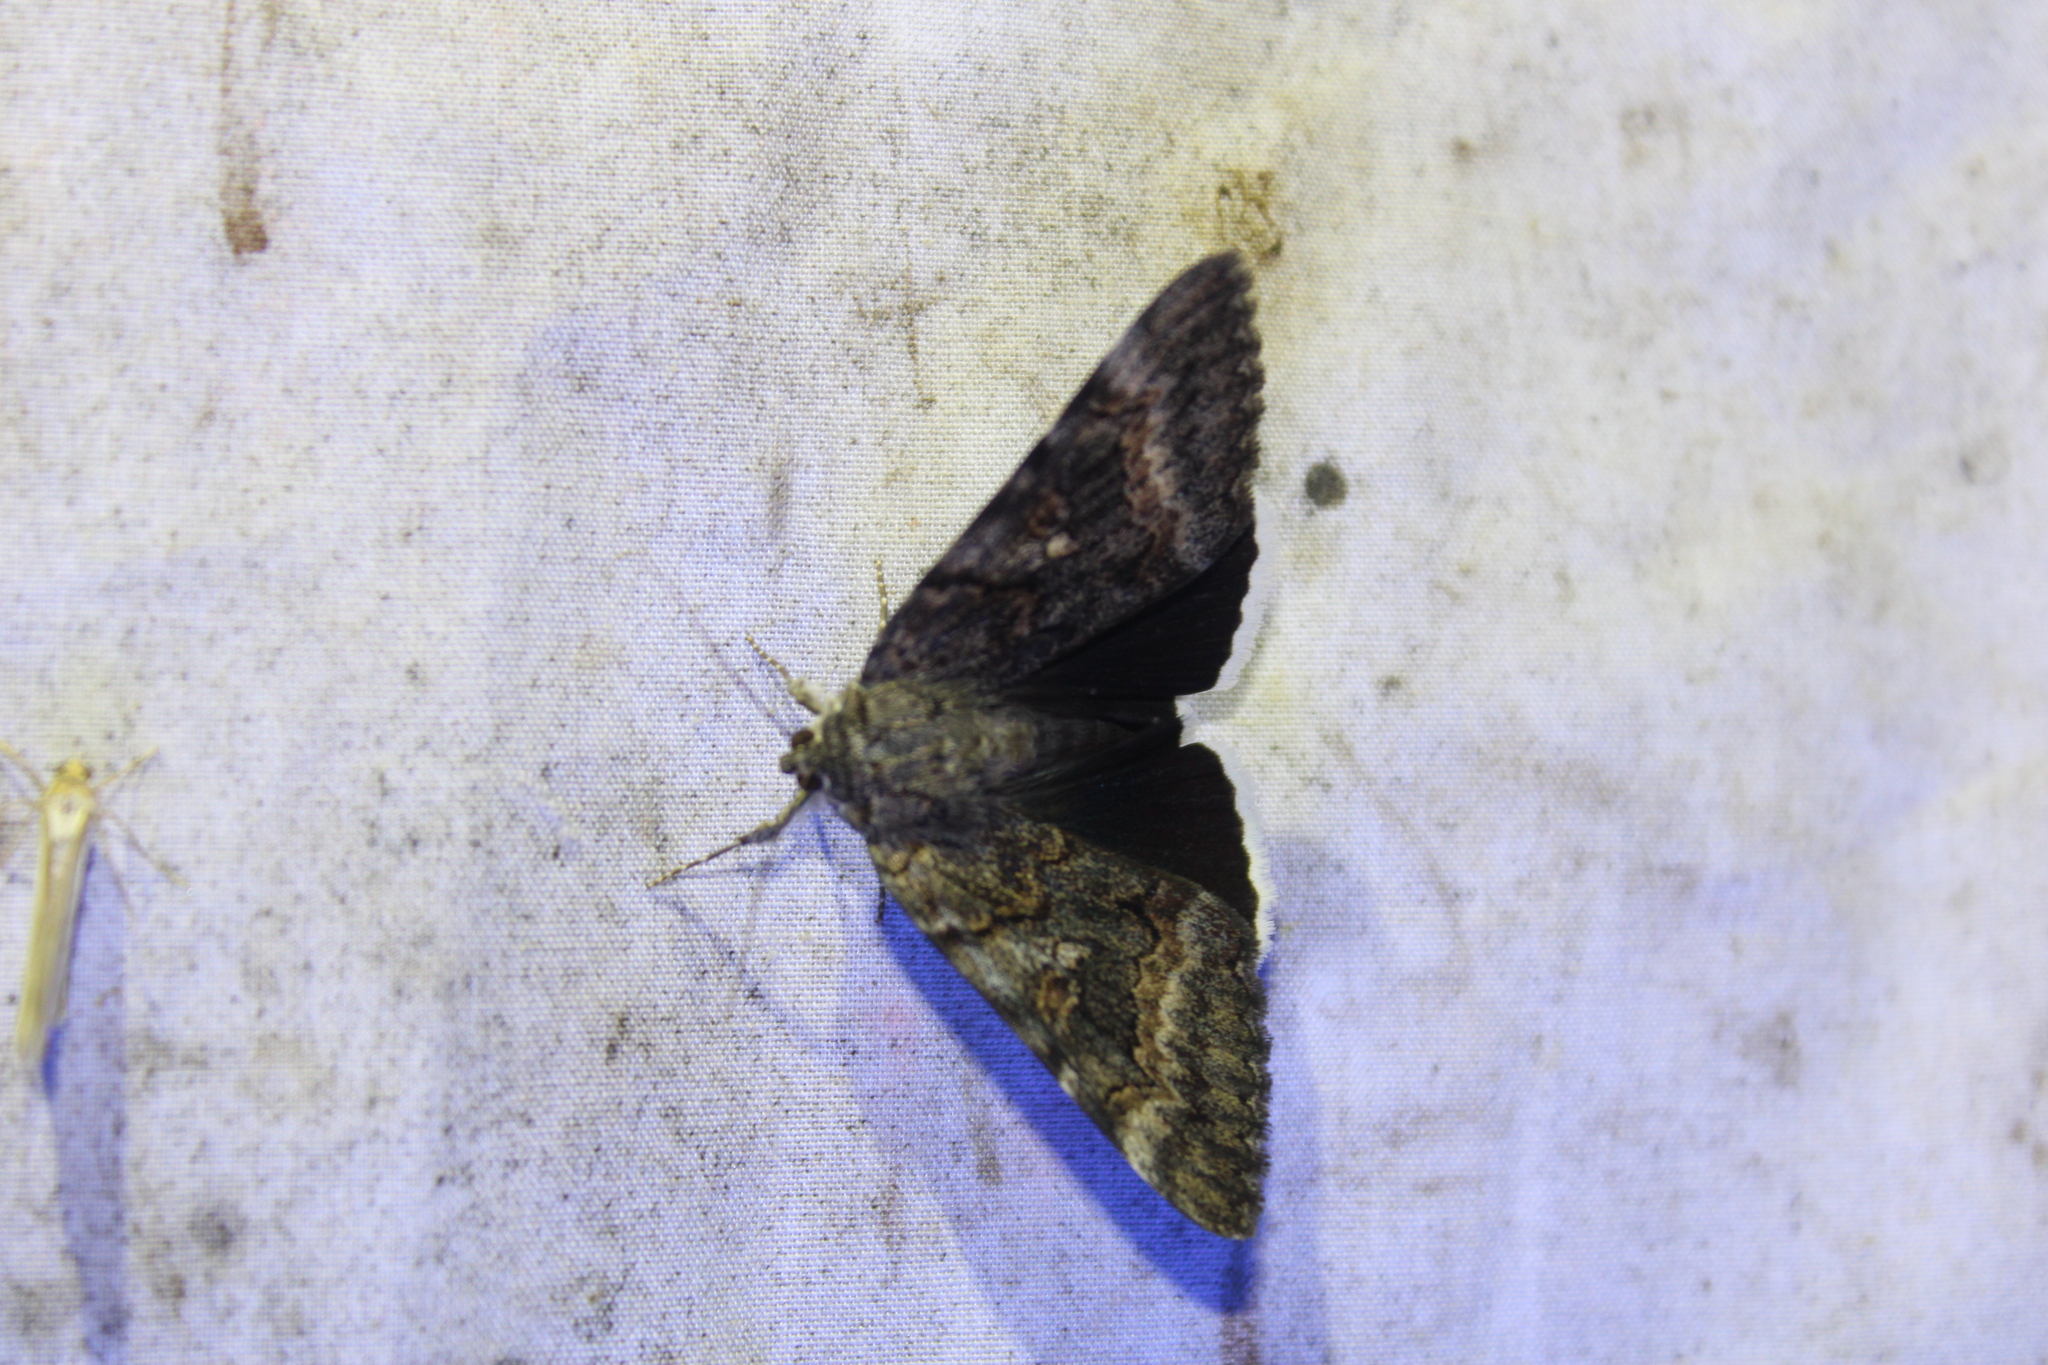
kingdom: Animalia
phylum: Arthropoda
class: Insecta
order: Lepidoptera
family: Erebidae
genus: Catocala
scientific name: Catocala epione
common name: Epione underwing
